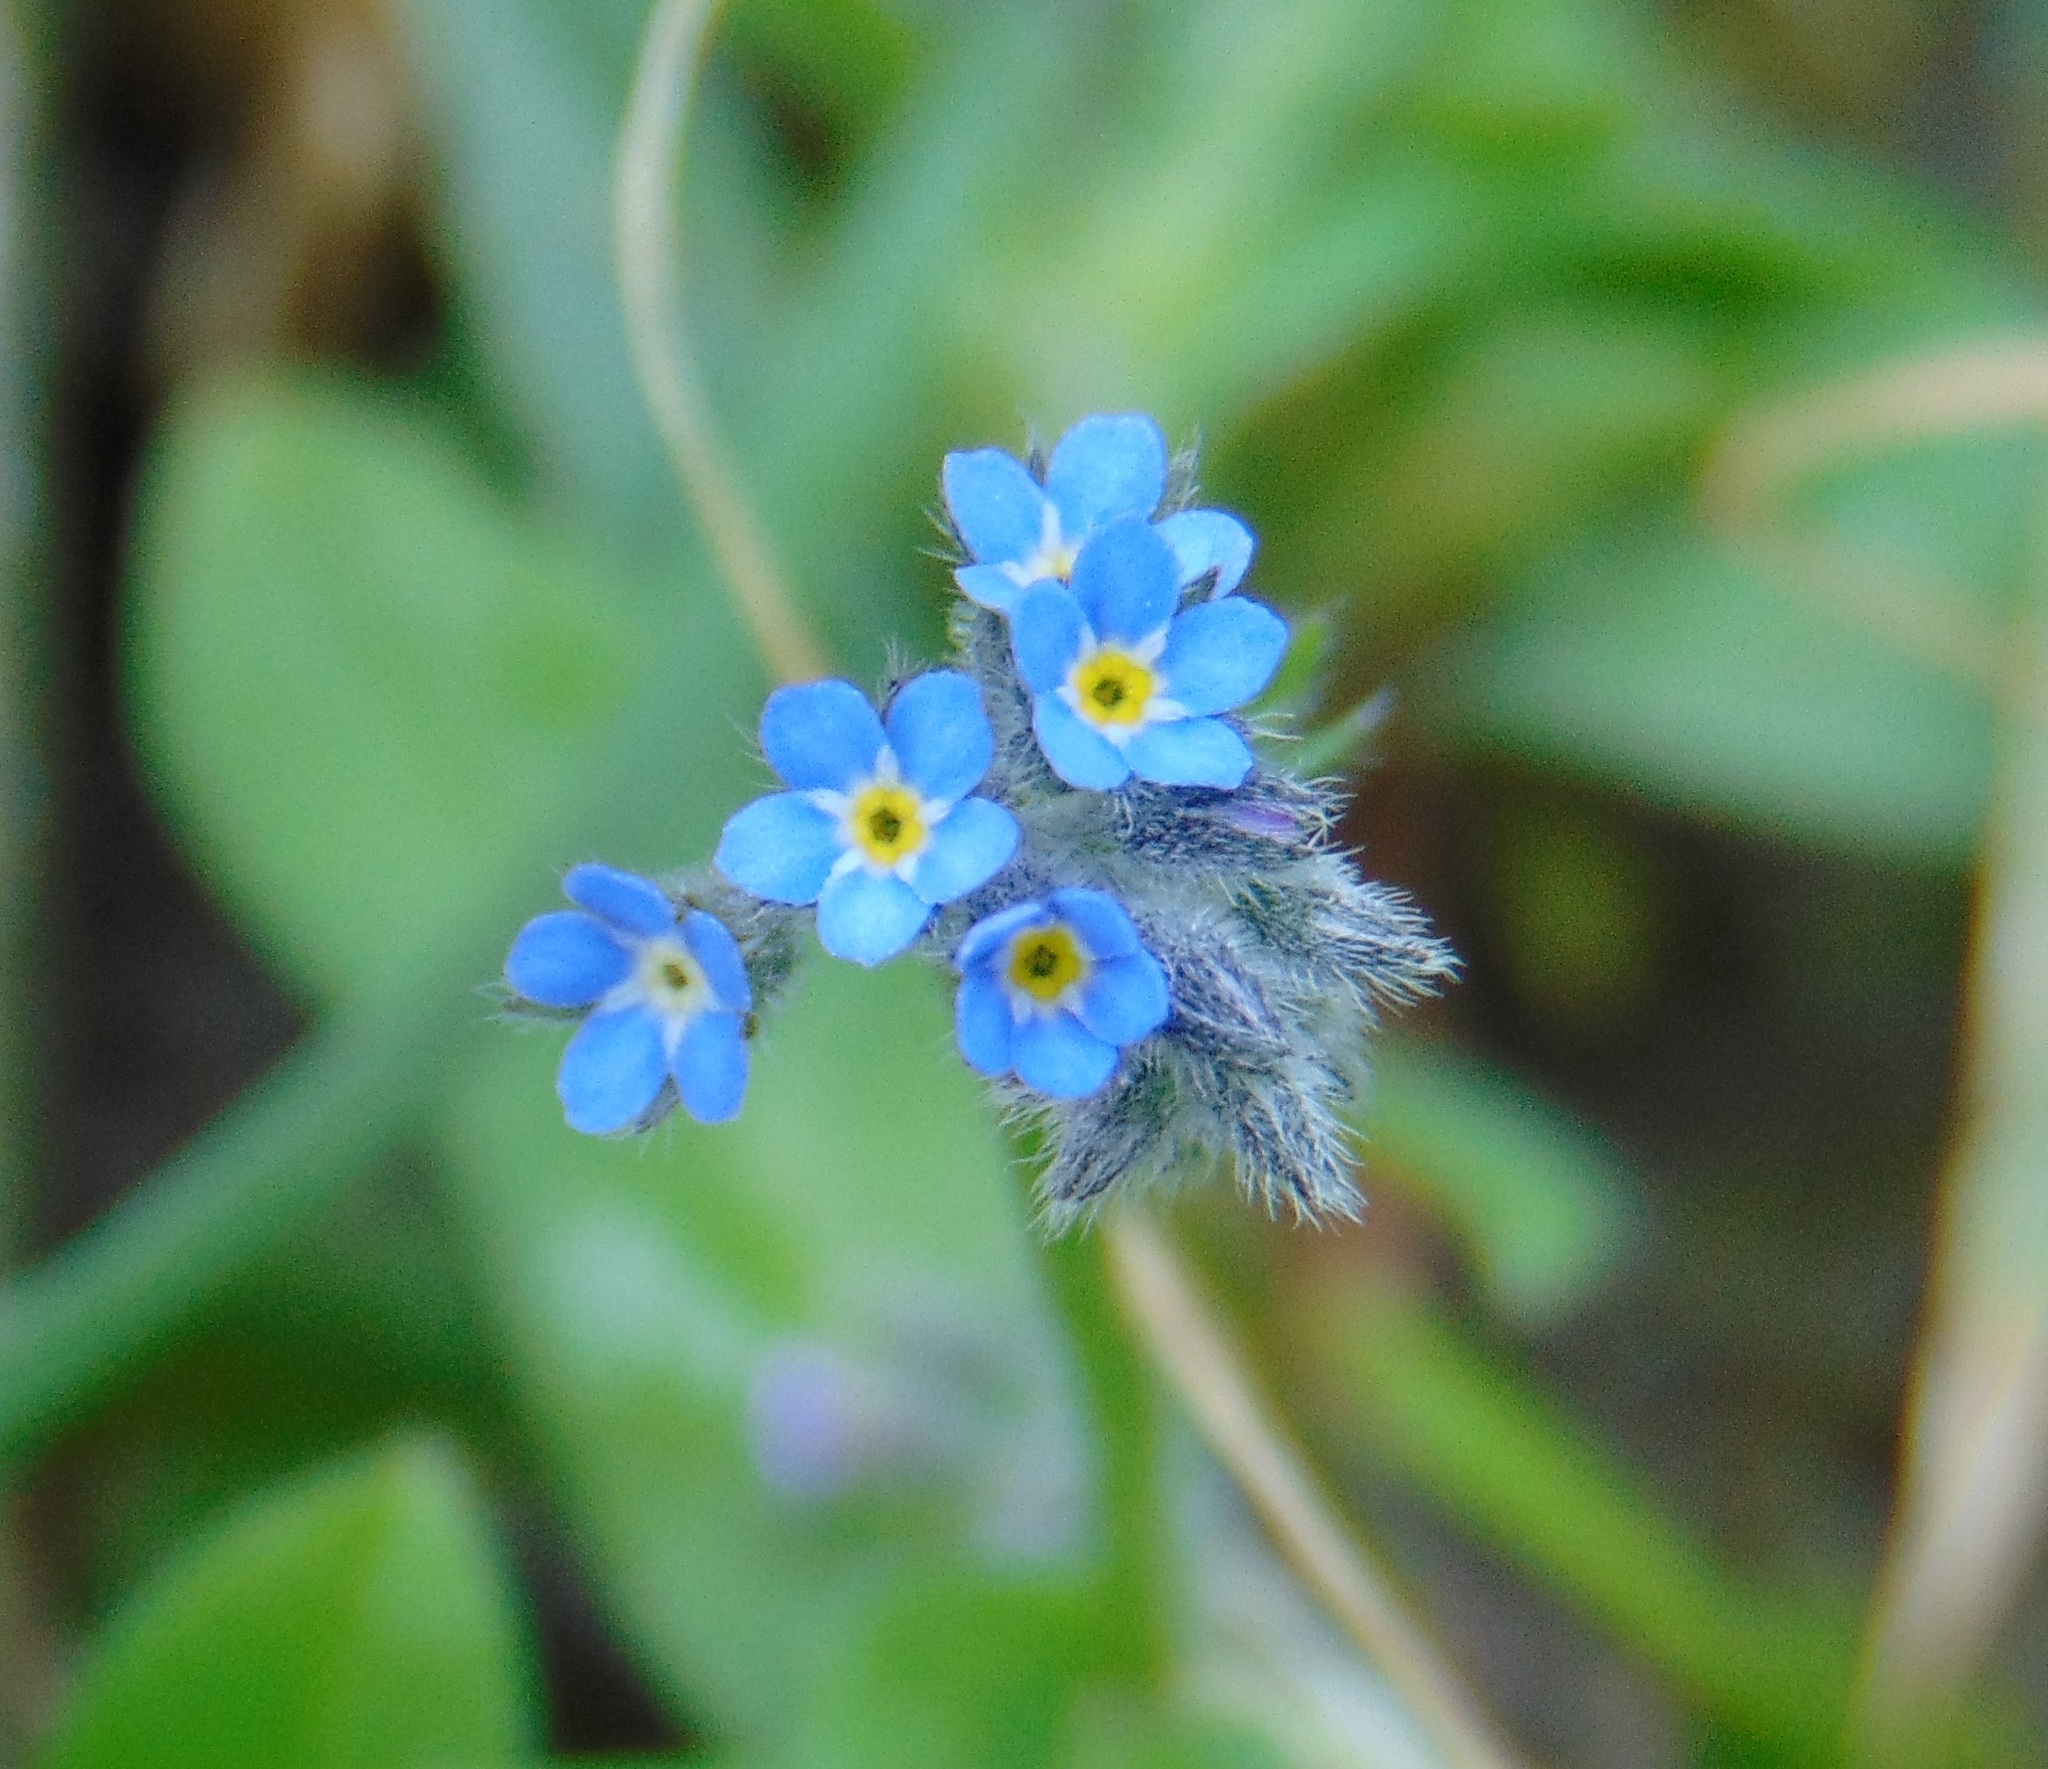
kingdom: Plantae
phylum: Tracheophyta
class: Magnoliopsida
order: Boraginales
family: Boraginaceae
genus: Myosotis
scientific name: Myosotis arvensis
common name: Field forget-me-not
